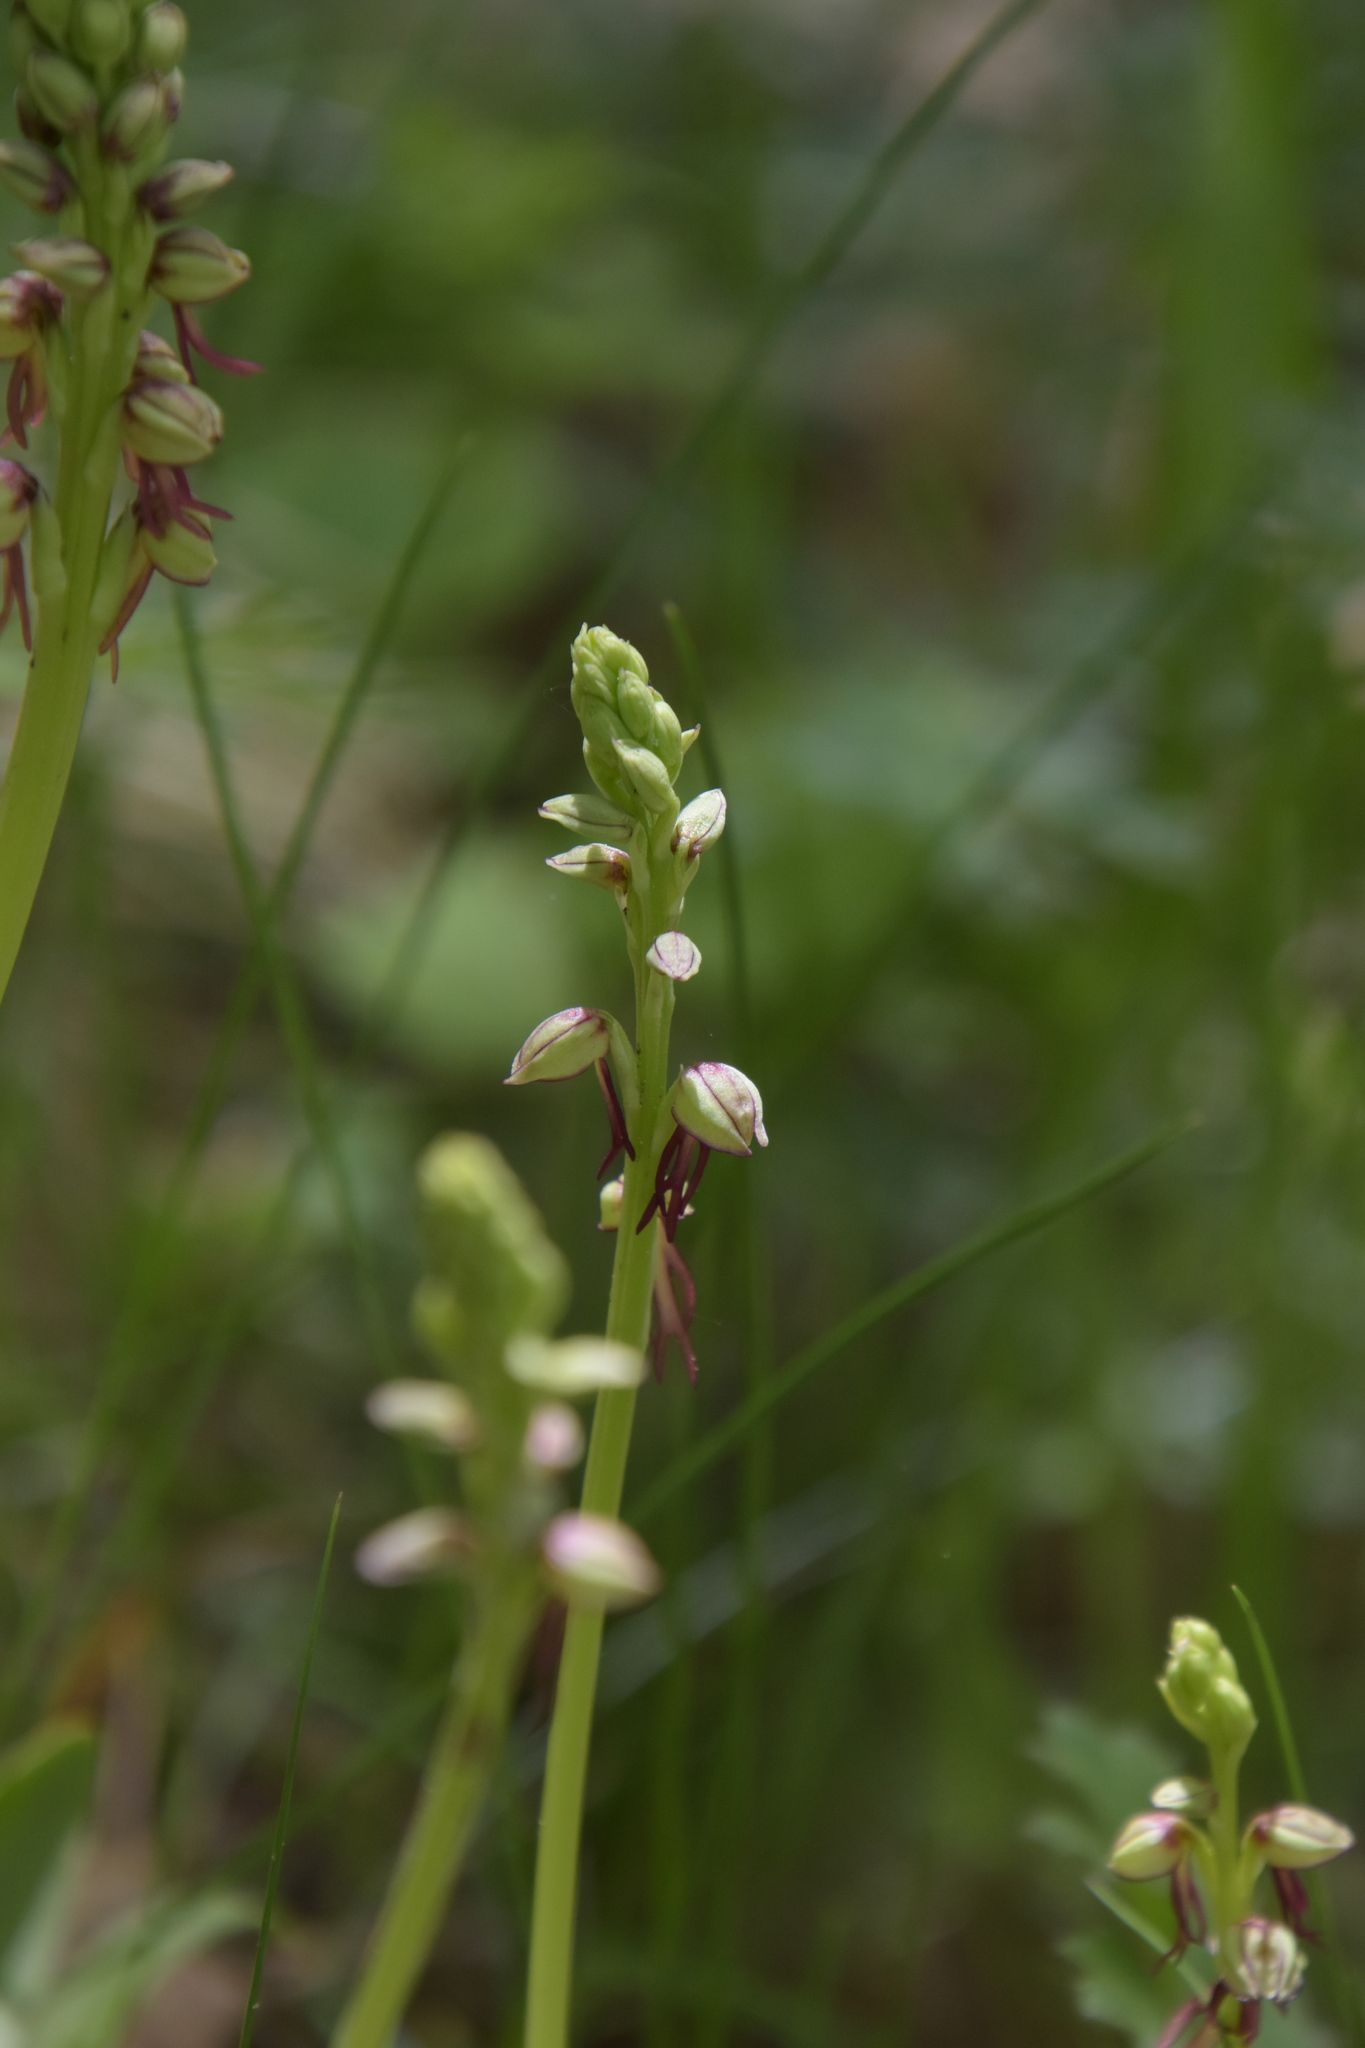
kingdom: Plantae
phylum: Tracheophyta
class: Liliopsida
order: Asparagales
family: Orchidaceae
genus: Orchis
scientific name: Orchis anthropophora
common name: Man orchid
